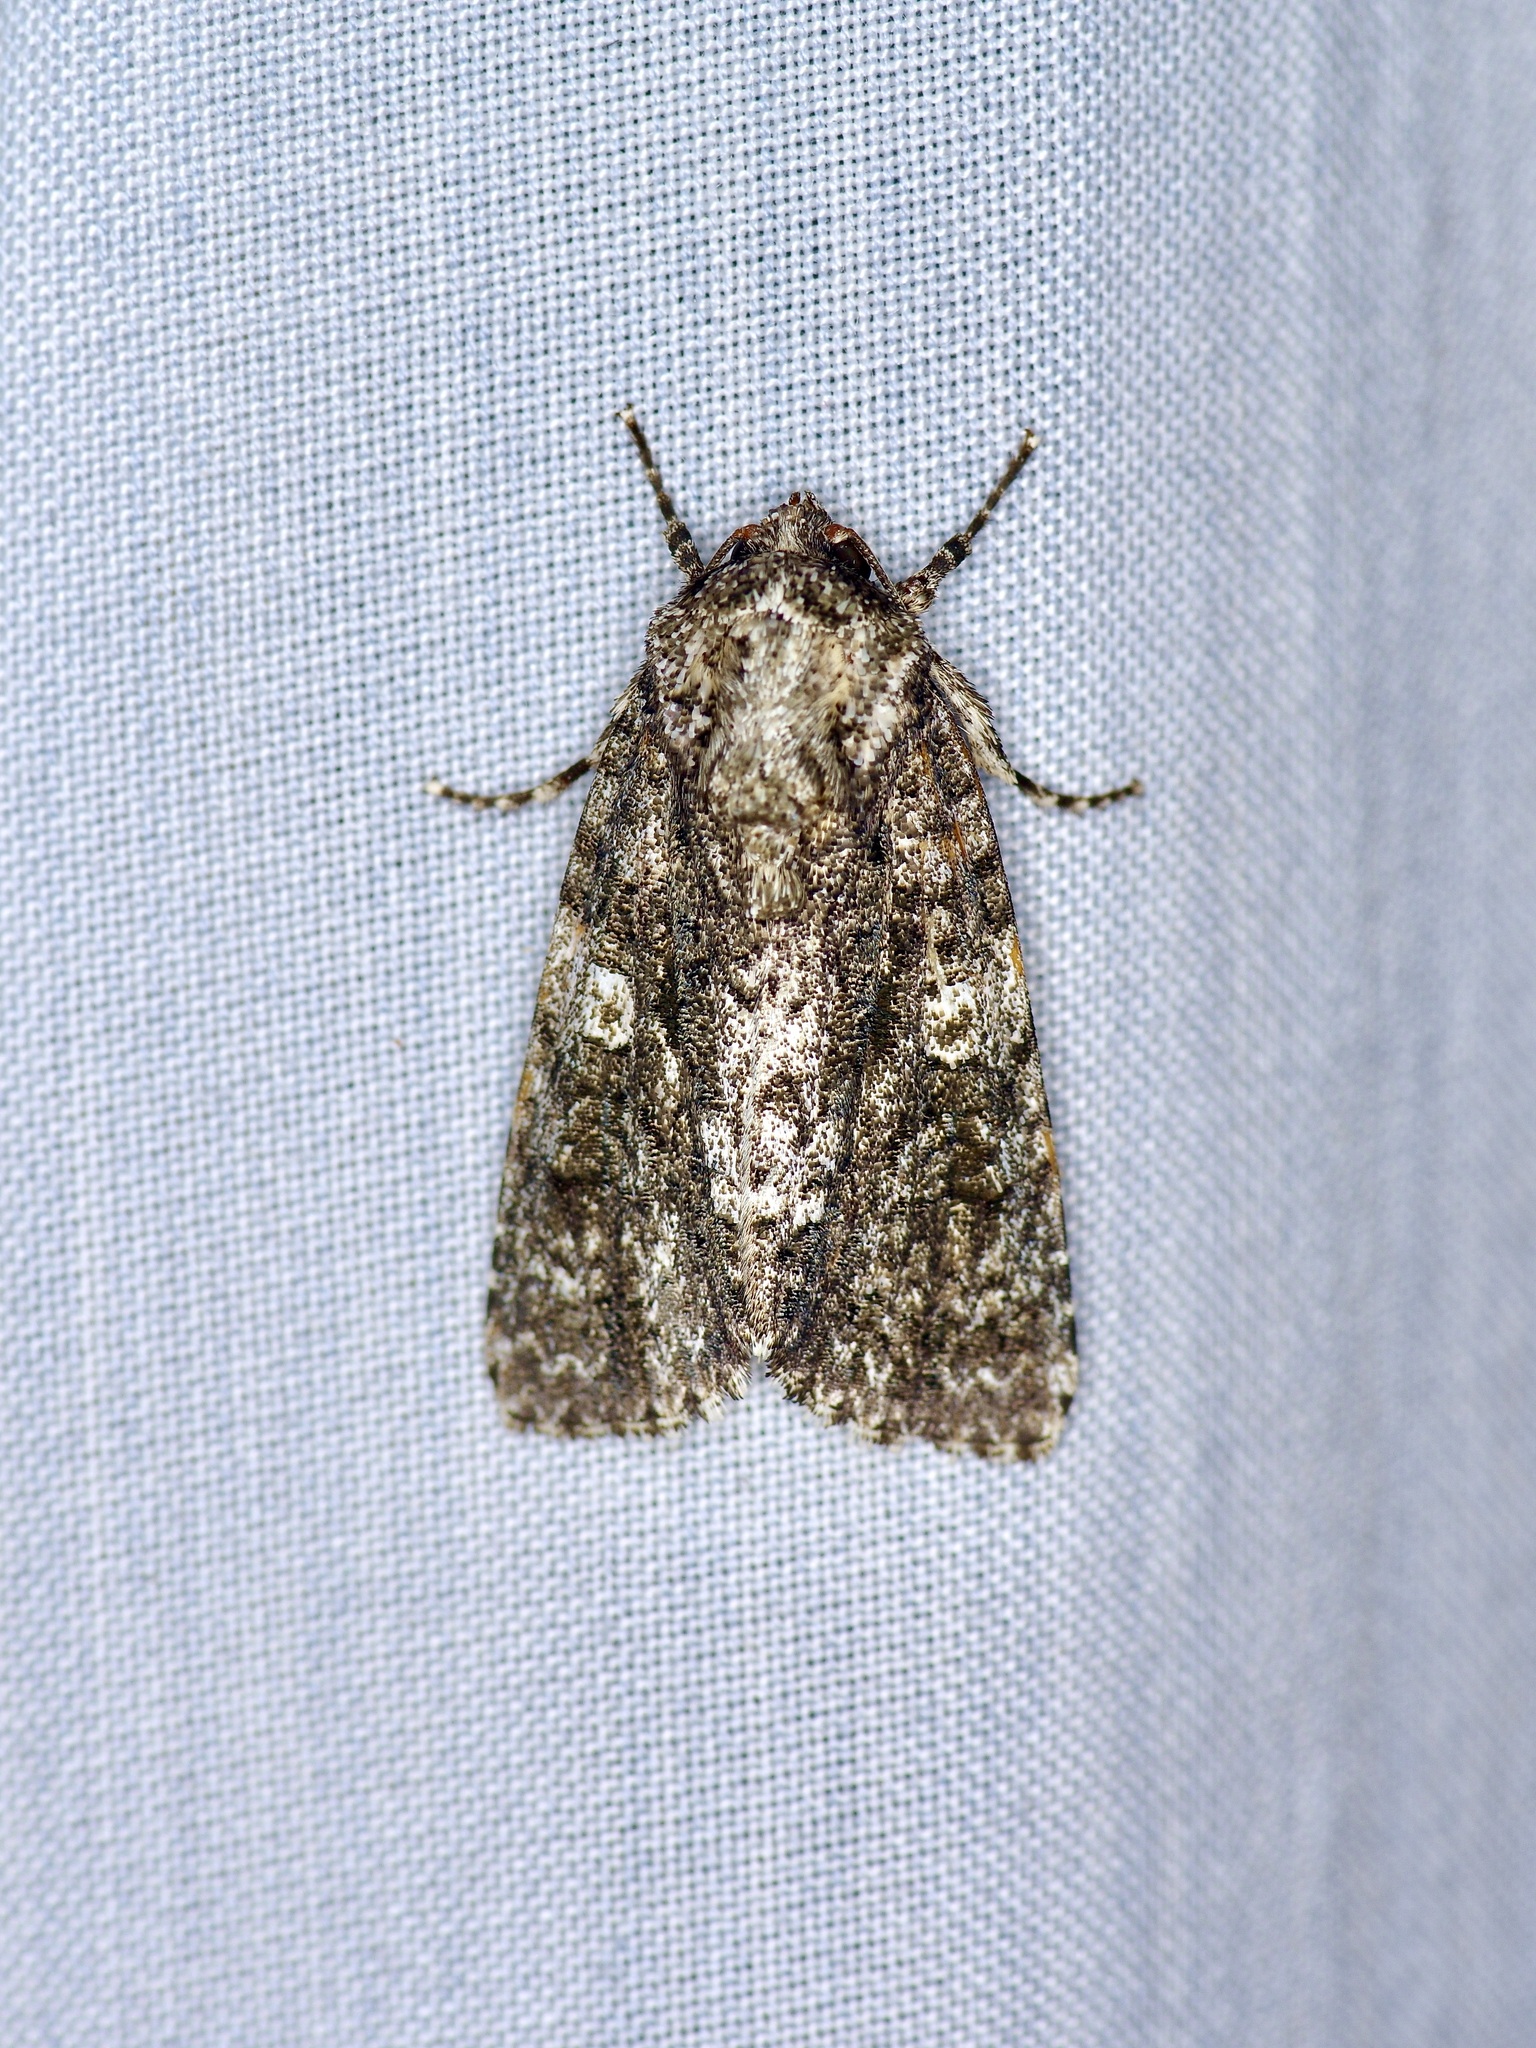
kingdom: Animalia
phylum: Arthropoda
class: Insecta
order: Lepidoptera
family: Noctuidae
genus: Acronicta
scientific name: Acronicta afflicta
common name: Afflicted dagger moth
